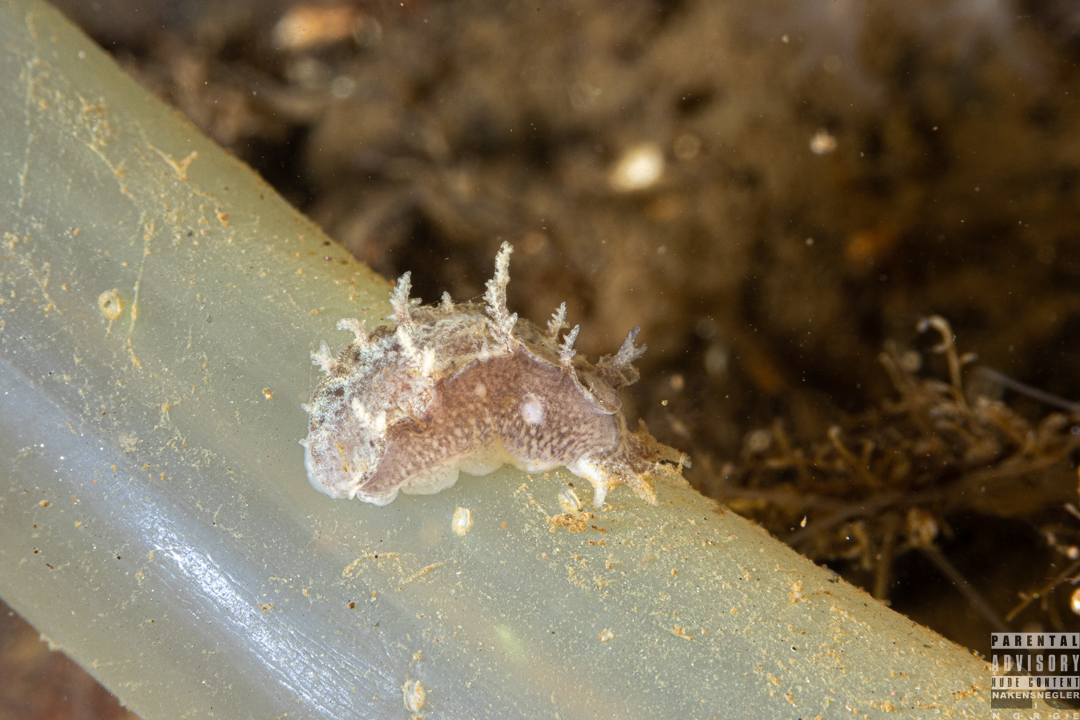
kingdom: Animalia
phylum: Mollusca
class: Gastropoda
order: Nudibranchia
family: Tritoniidae
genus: Duvaucelia
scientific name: Duvaucelia plebeia
